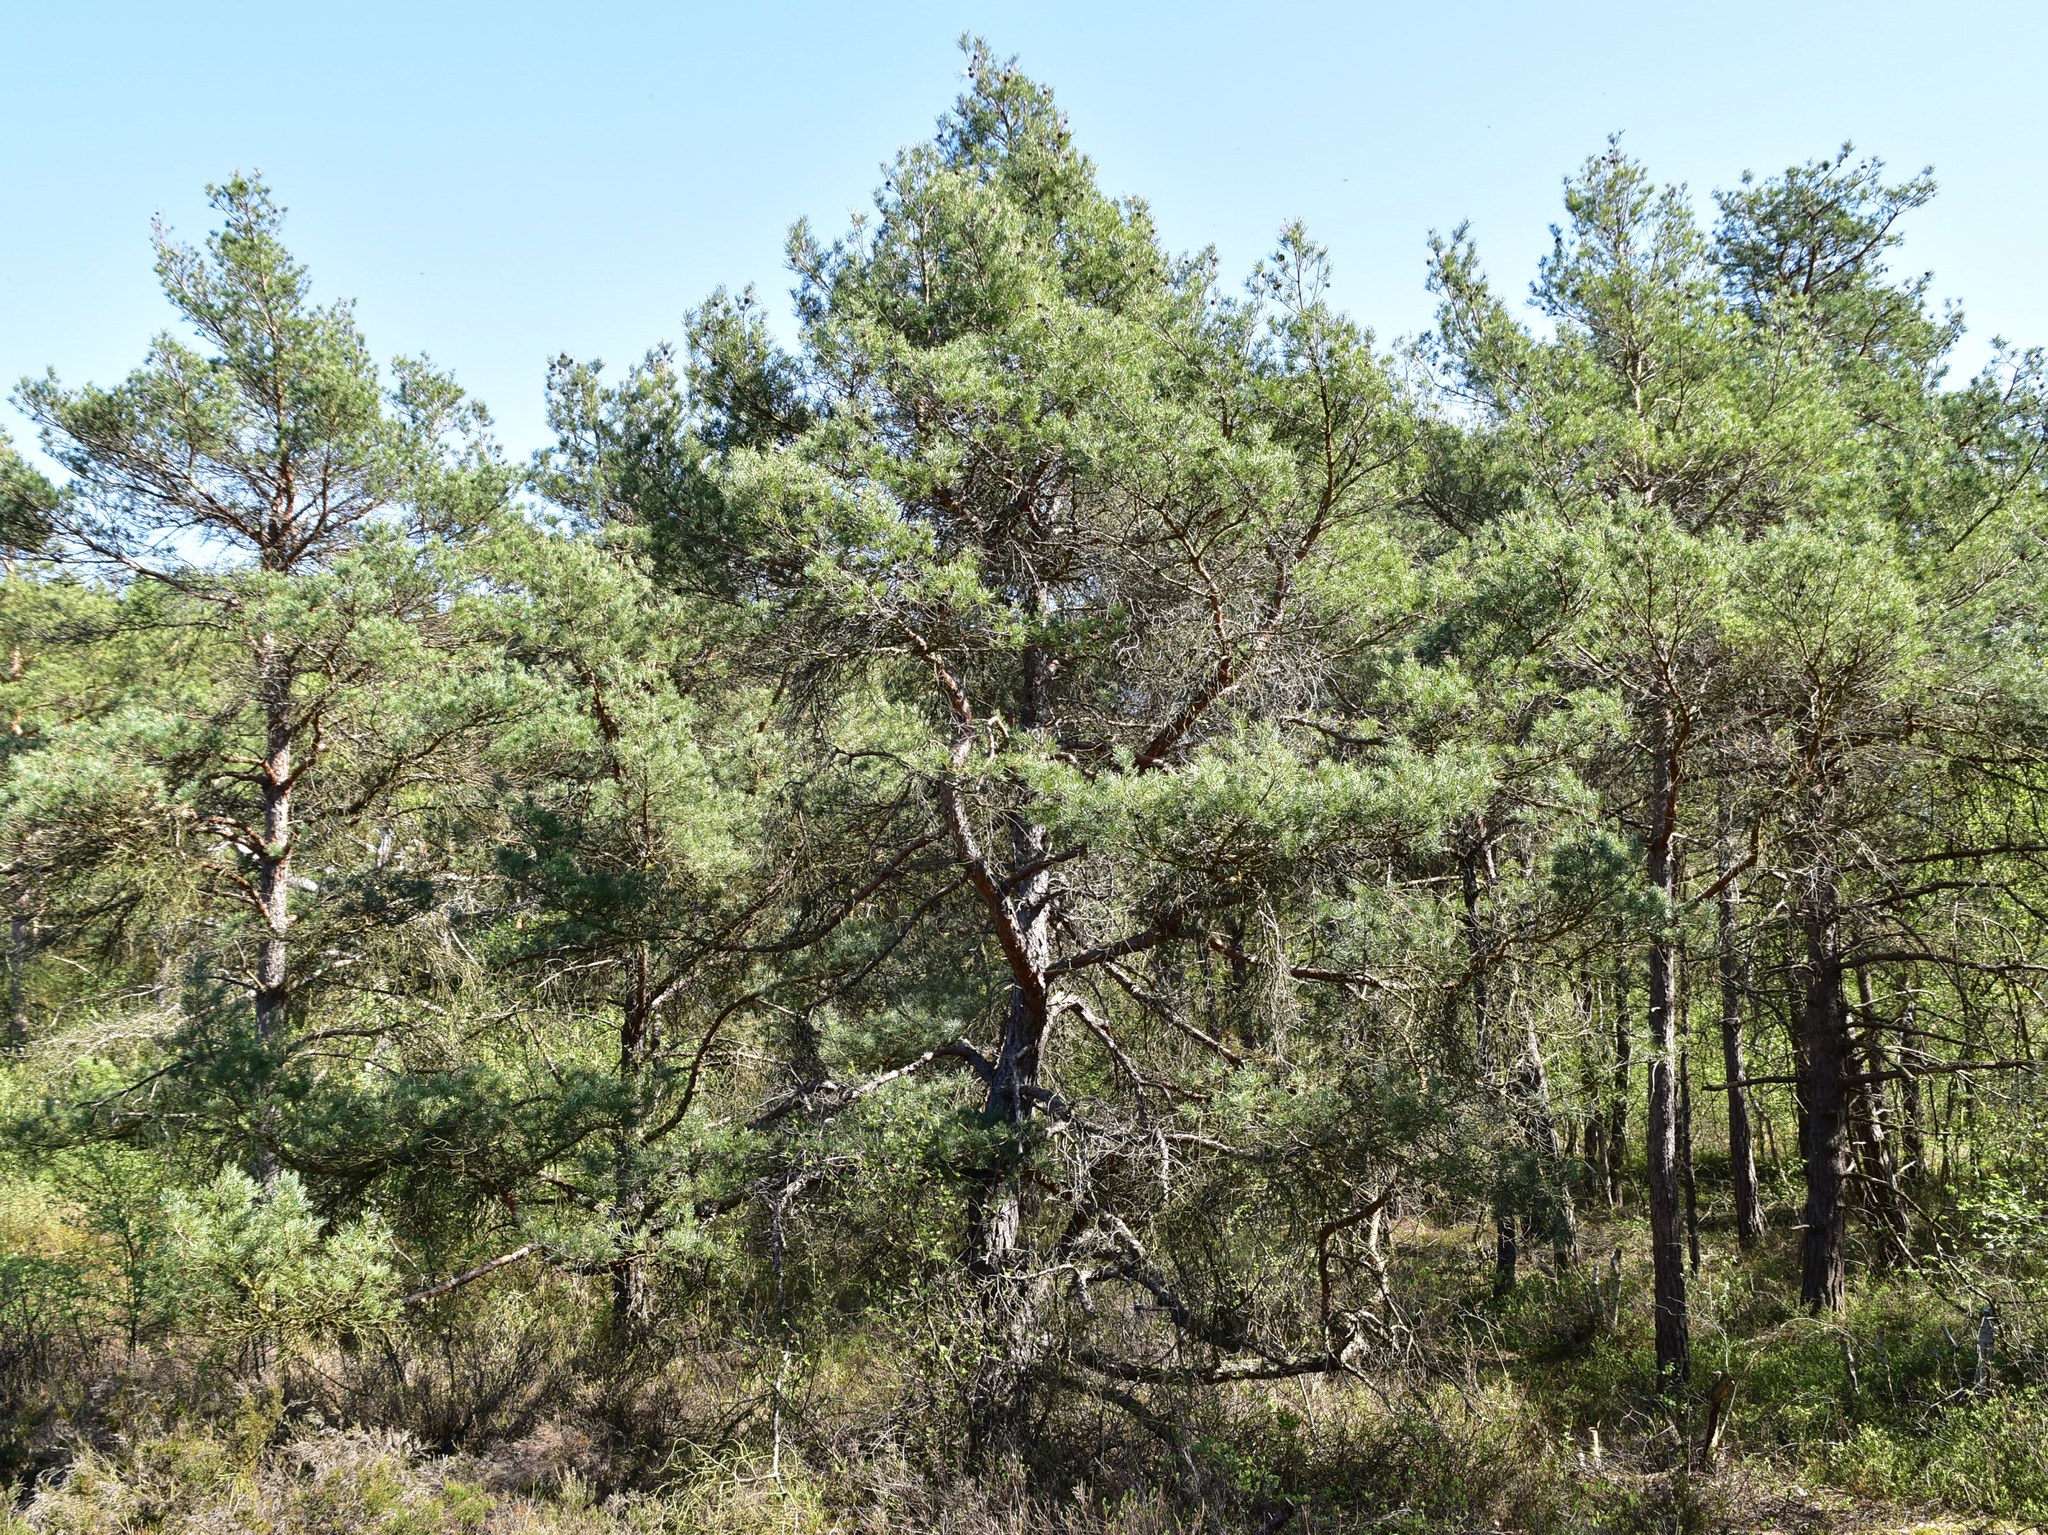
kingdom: Plantae
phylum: Tracheophyta
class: Pinopsida
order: Pinales
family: Pinaceae
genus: Pinus
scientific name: Pinus sylvestris
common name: Scots pine
